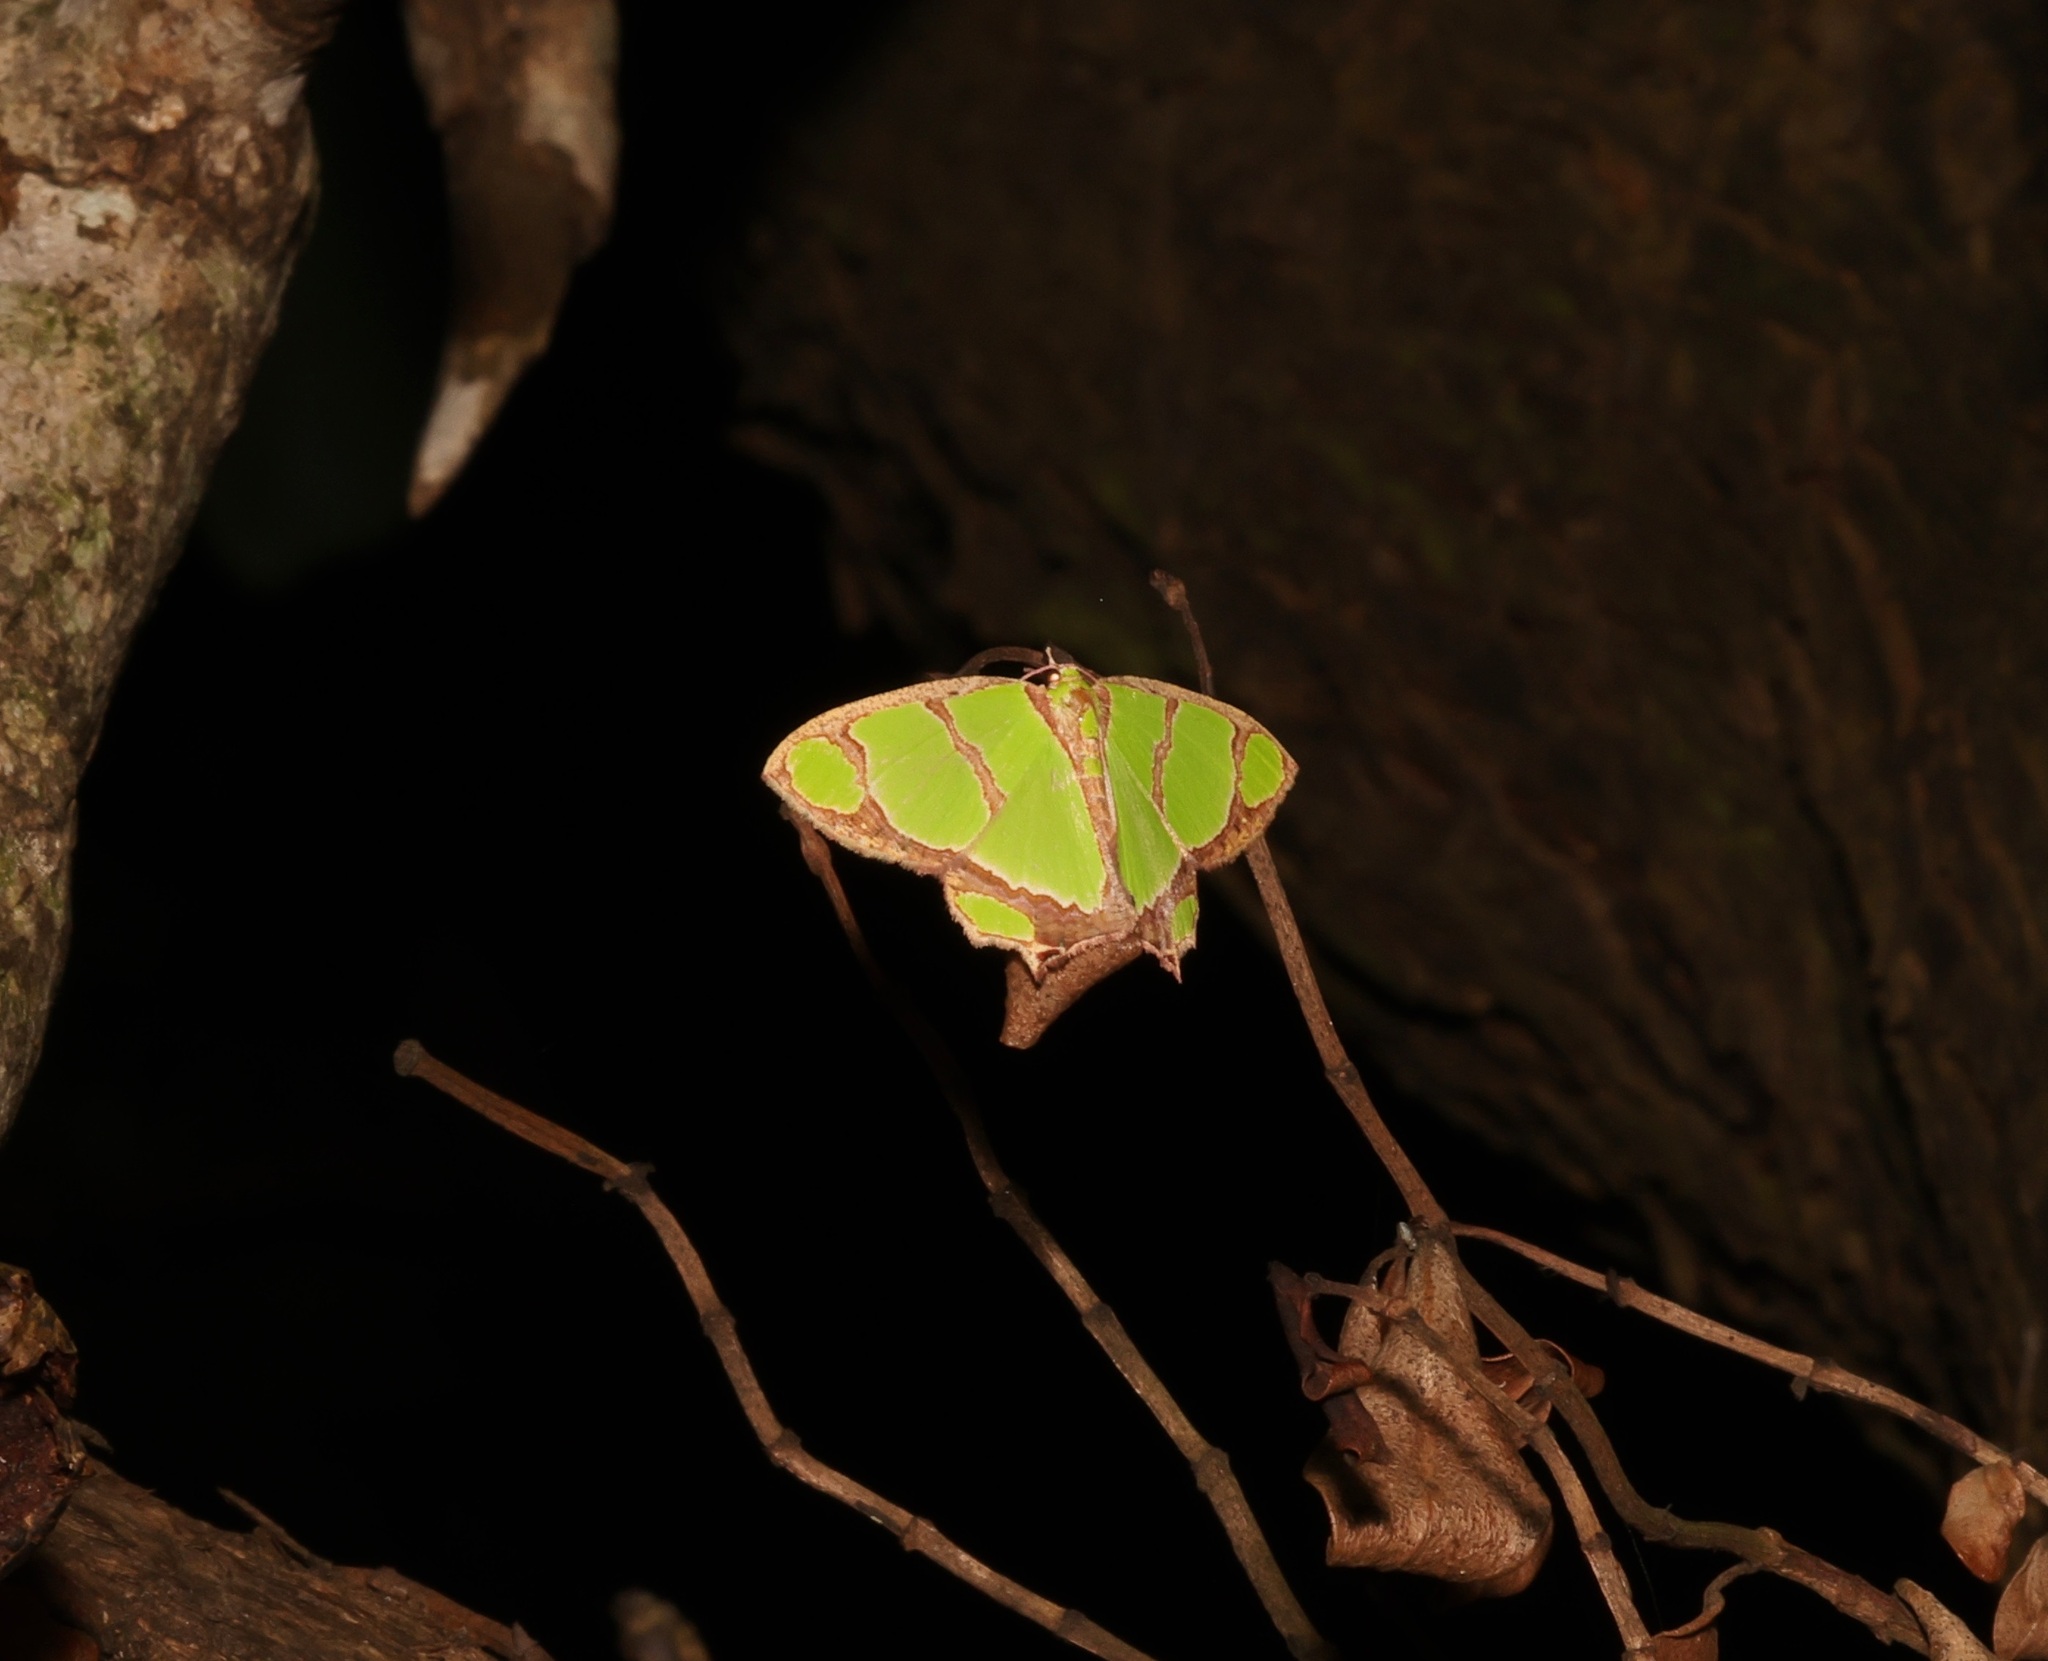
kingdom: Animalia
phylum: Arthropoda
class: Insecta
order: Lepidoptera
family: Geometridae
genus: Agathia
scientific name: Agathia carissima
